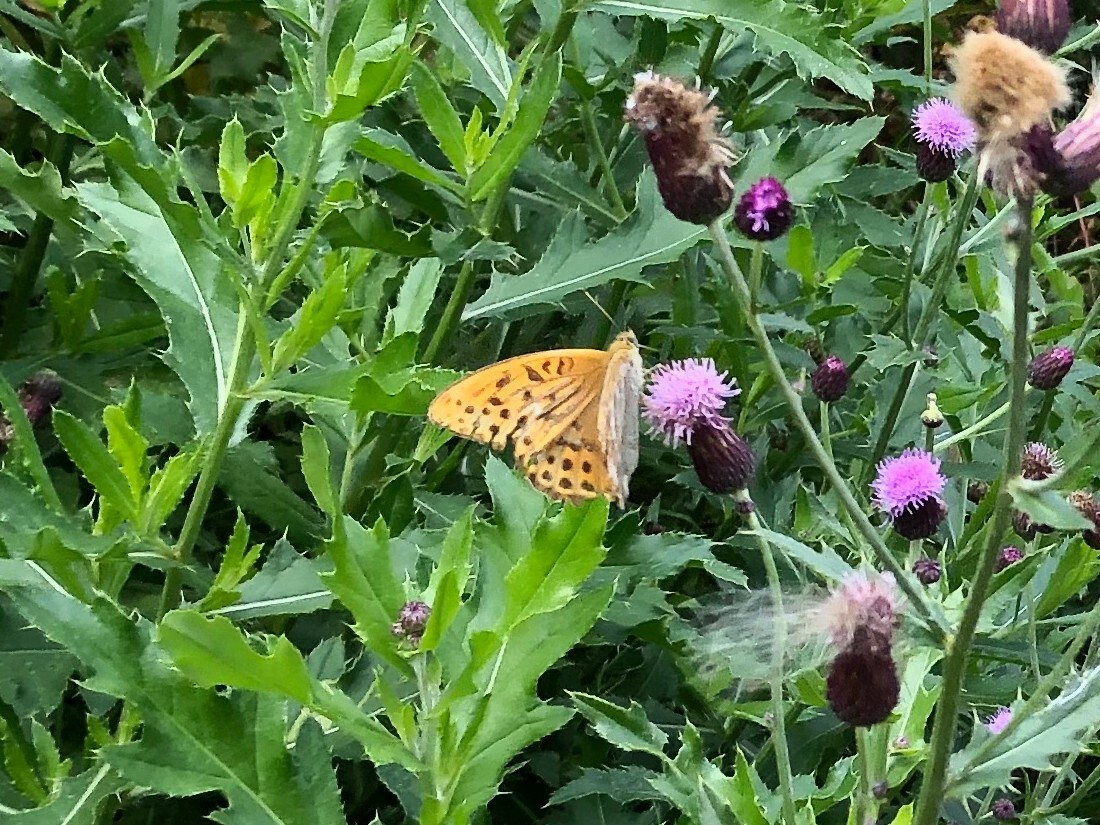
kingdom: Animalia
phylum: Arthropoda
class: Insecta
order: Lepidoptera
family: Nymphalidae
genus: Argynnis
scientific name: Argynnis paphia
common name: Silver-washed fritillary
